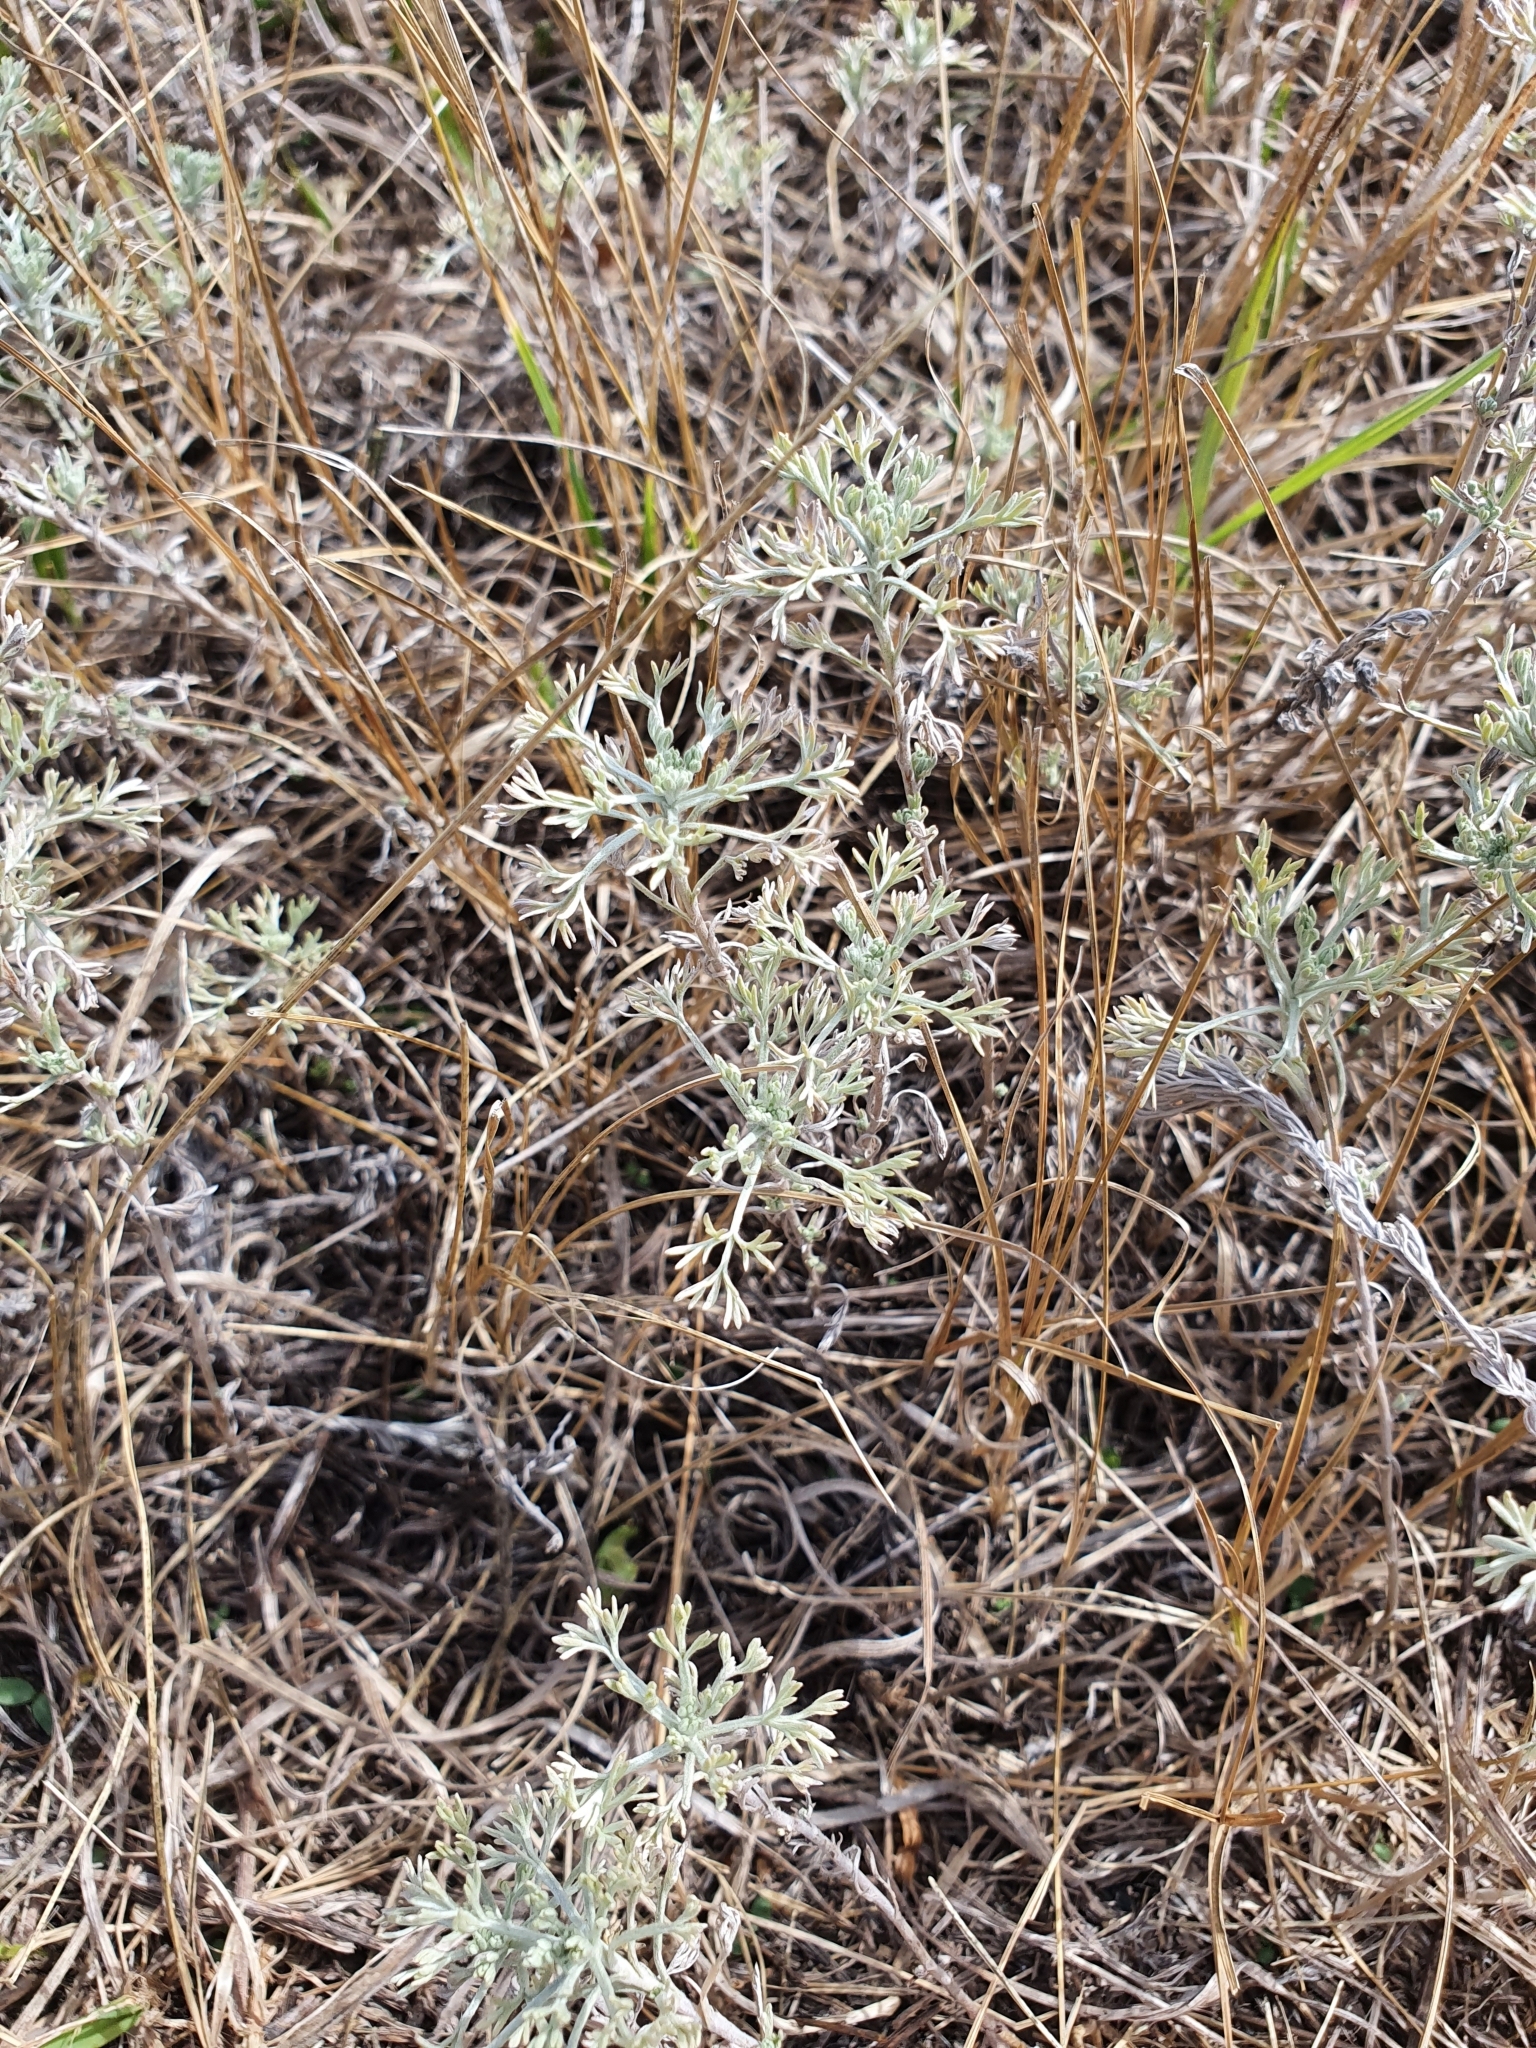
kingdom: Plantae
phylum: Tracheophyta
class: Magnoliopsida
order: Asterales
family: Asteraceae
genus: Artemisia
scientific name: Artemisia austriaca
